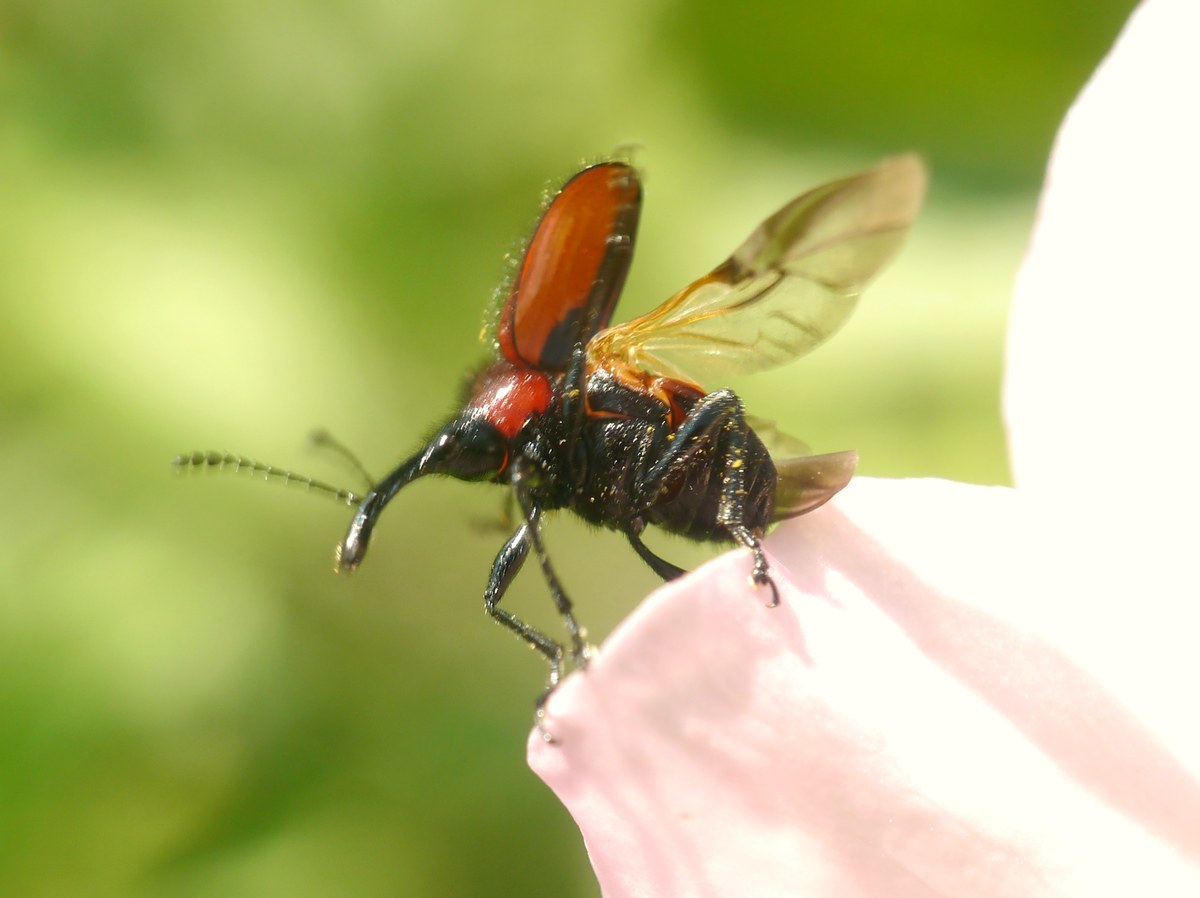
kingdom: Animalia
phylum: Arthropoda
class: Insecta
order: Coleoptera
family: Attelabidae
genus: Mecorhis
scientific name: Mecorhis ungarica
